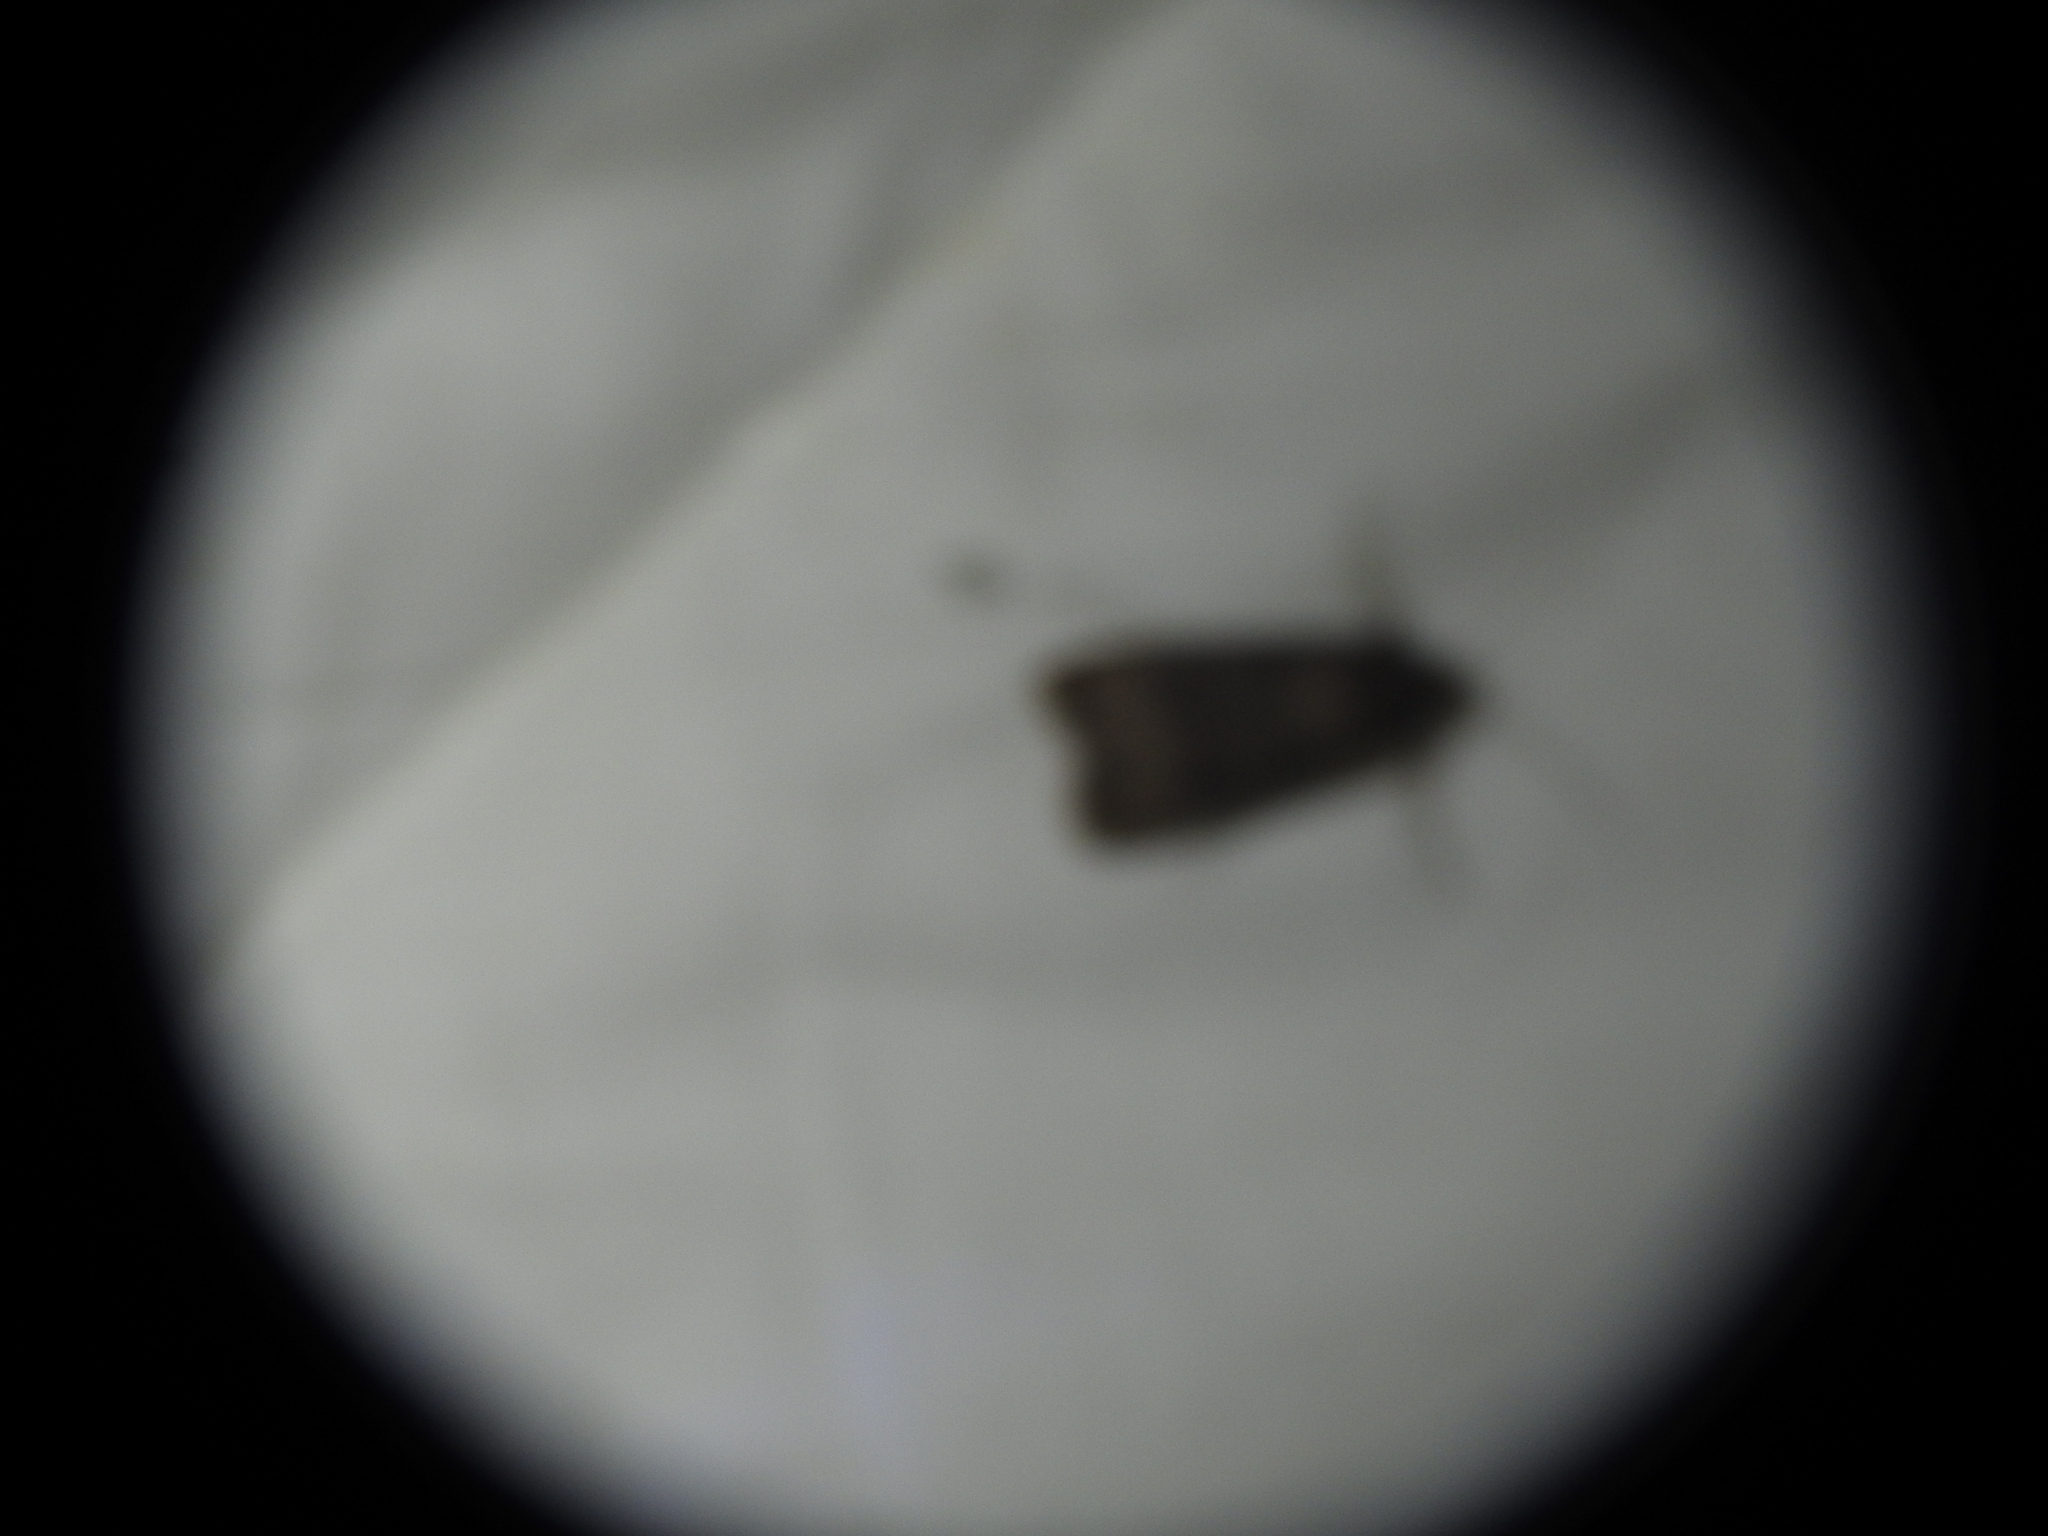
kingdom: Animalia
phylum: Arthropoda
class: Insecta
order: Lepidoptera
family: Noctuidae
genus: Agrotis
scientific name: Agrotis ipsilon
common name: Dark sword-grass
